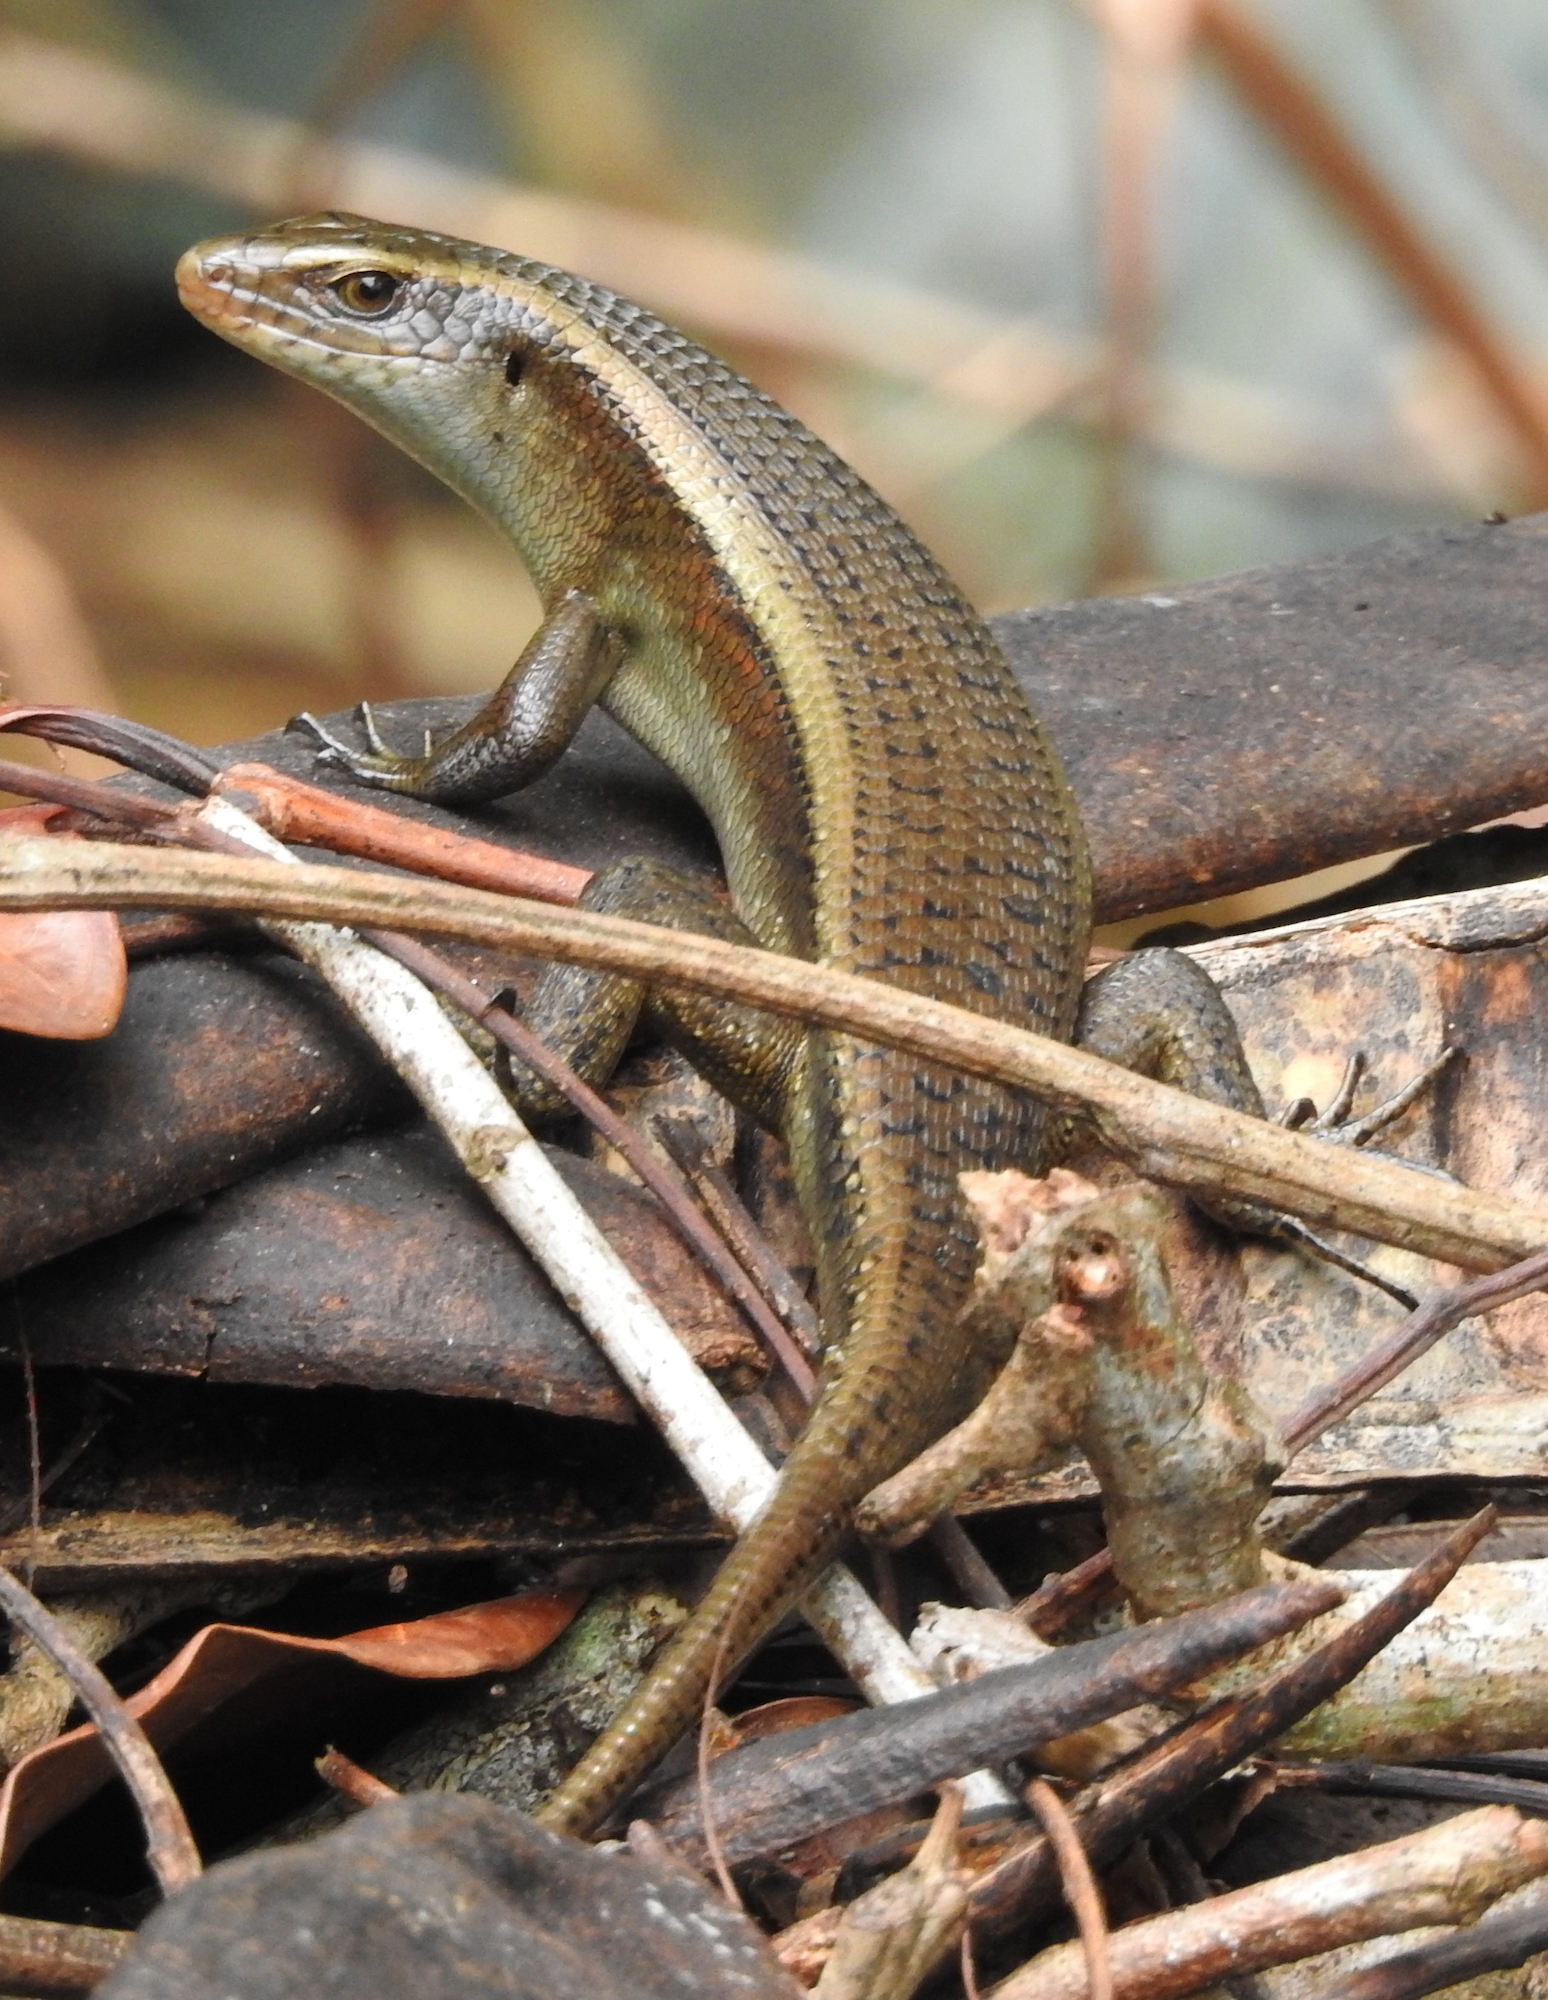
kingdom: Animalia
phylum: Chordata
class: Squamata
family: Scincidae
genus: Eutropis
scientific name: Eutropis multifasciata
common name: Common mabuya
